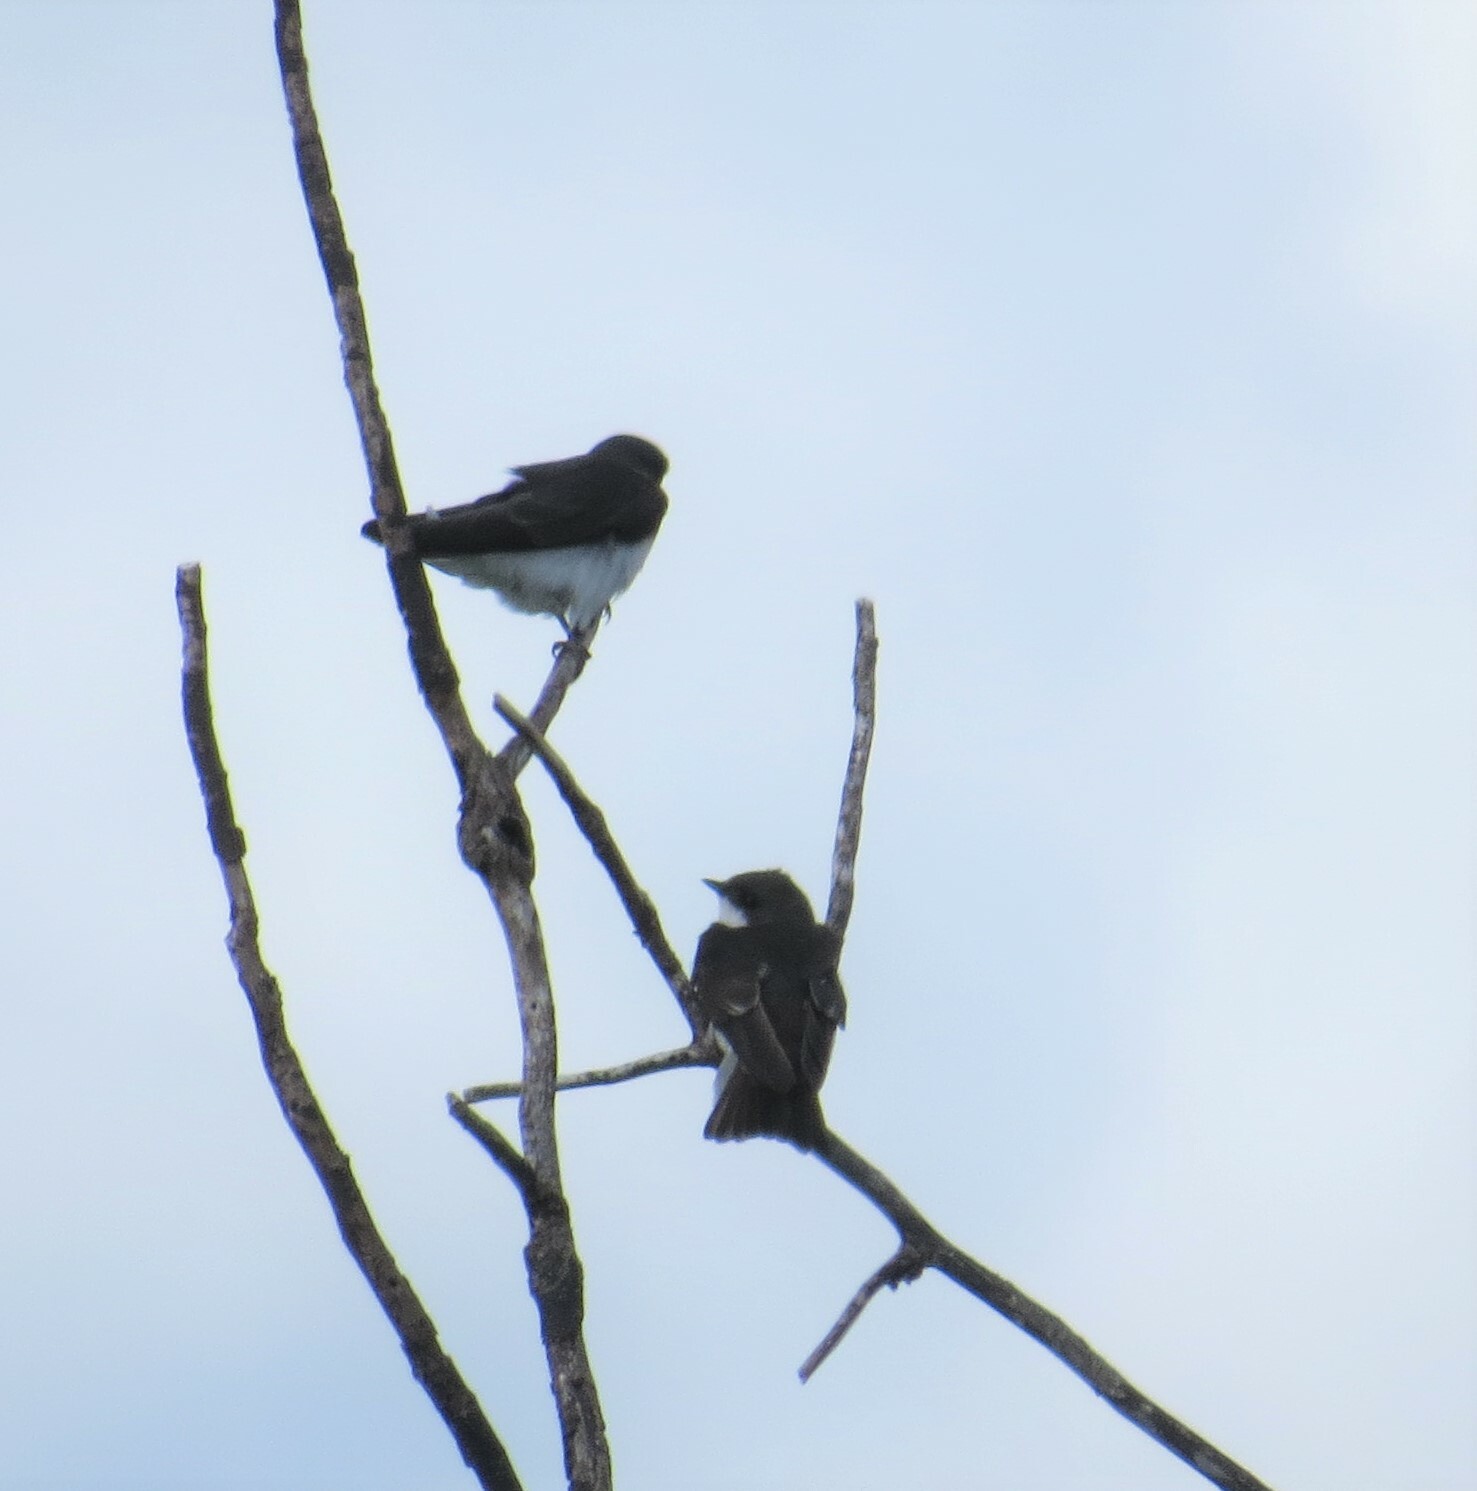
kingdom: Animalia
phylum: Chordata
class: Aves
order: Passeriformes
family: Hirundinidae
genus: Tachycineta
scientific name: Tachycineta bicolor
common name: Tree swallow
